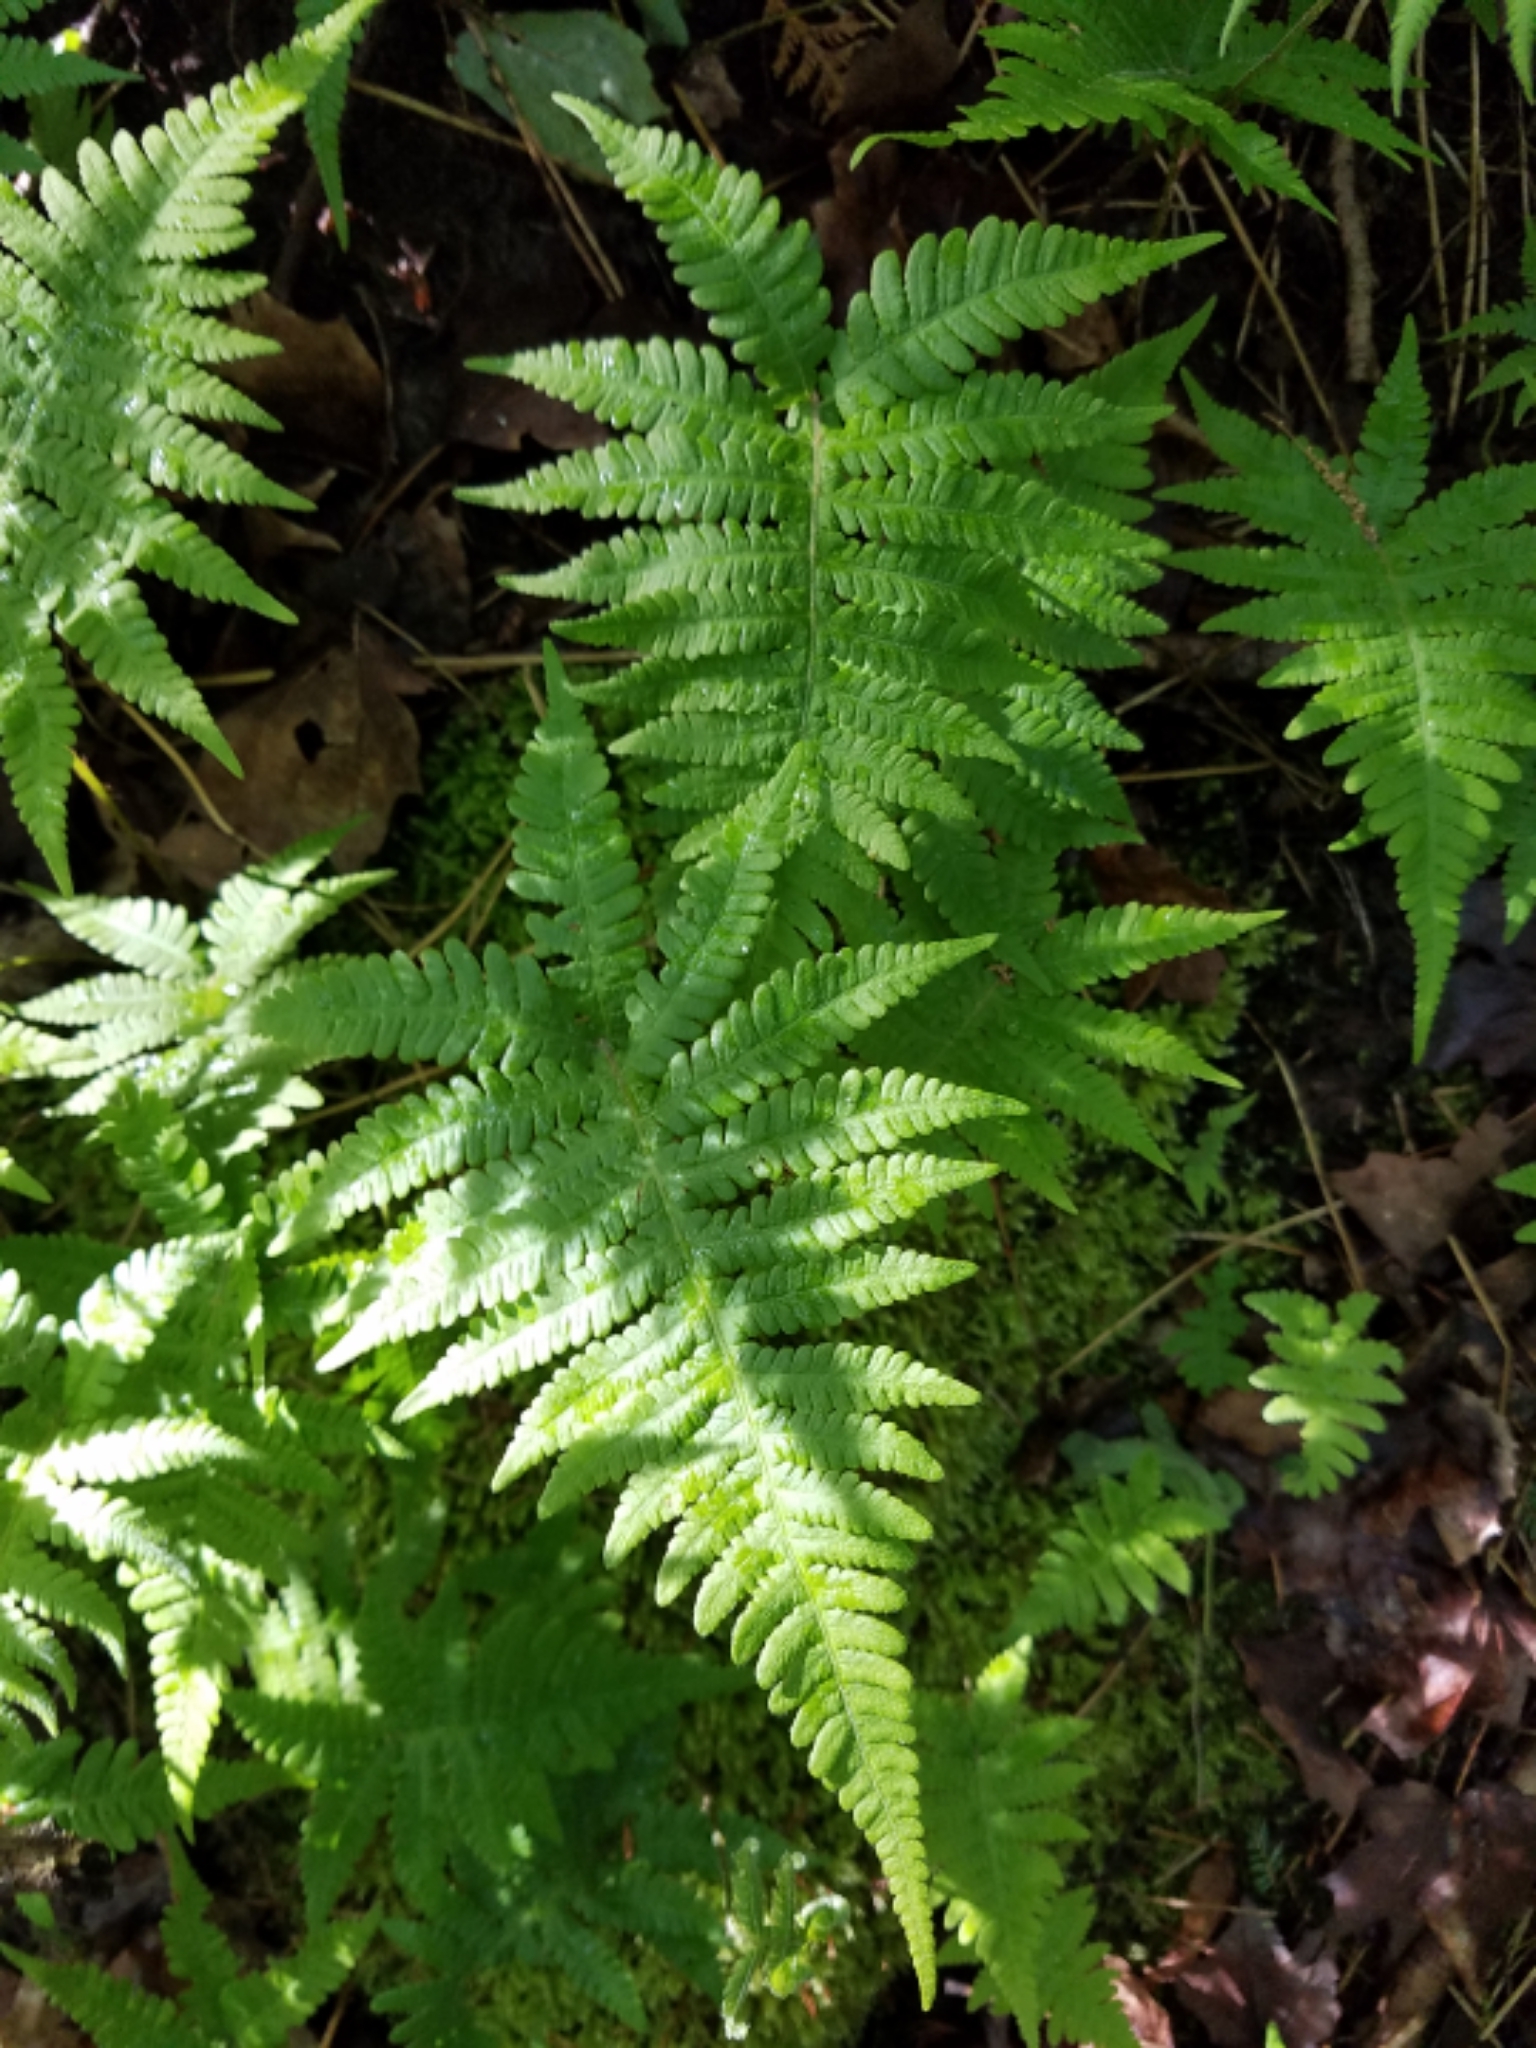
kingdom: Plantae
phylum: Tracheophyta
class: Polypodiopsida
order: Polypodiales
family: Thelypteridaceae
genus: Phegopteris
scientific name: Phegopteris connectilis
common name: Beech fern
